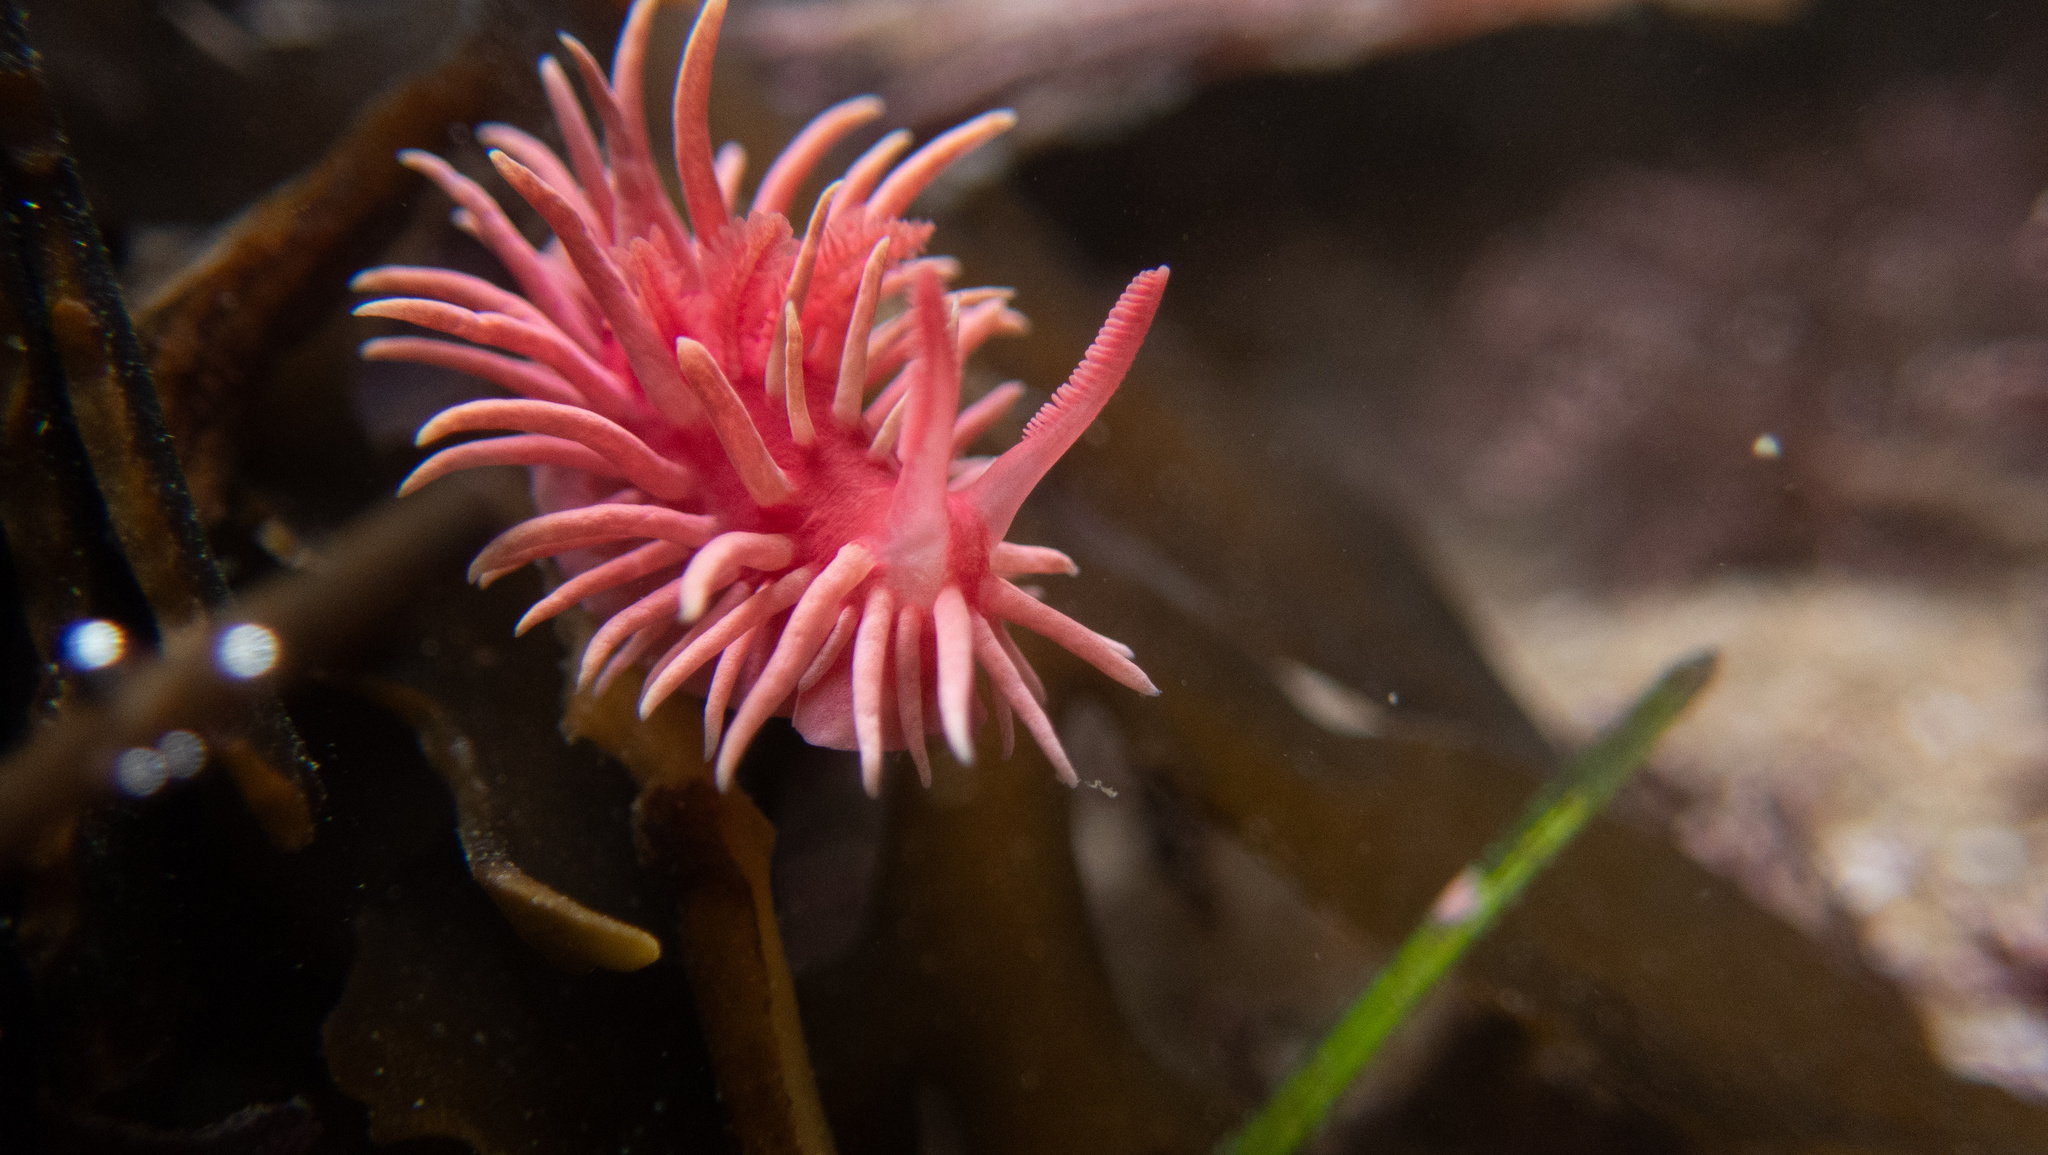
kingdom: Animalia
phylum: Mollusca
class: Gastropoda
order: Nudibranchia
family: Goniodorididae
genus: Okenia
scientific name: Okenia
